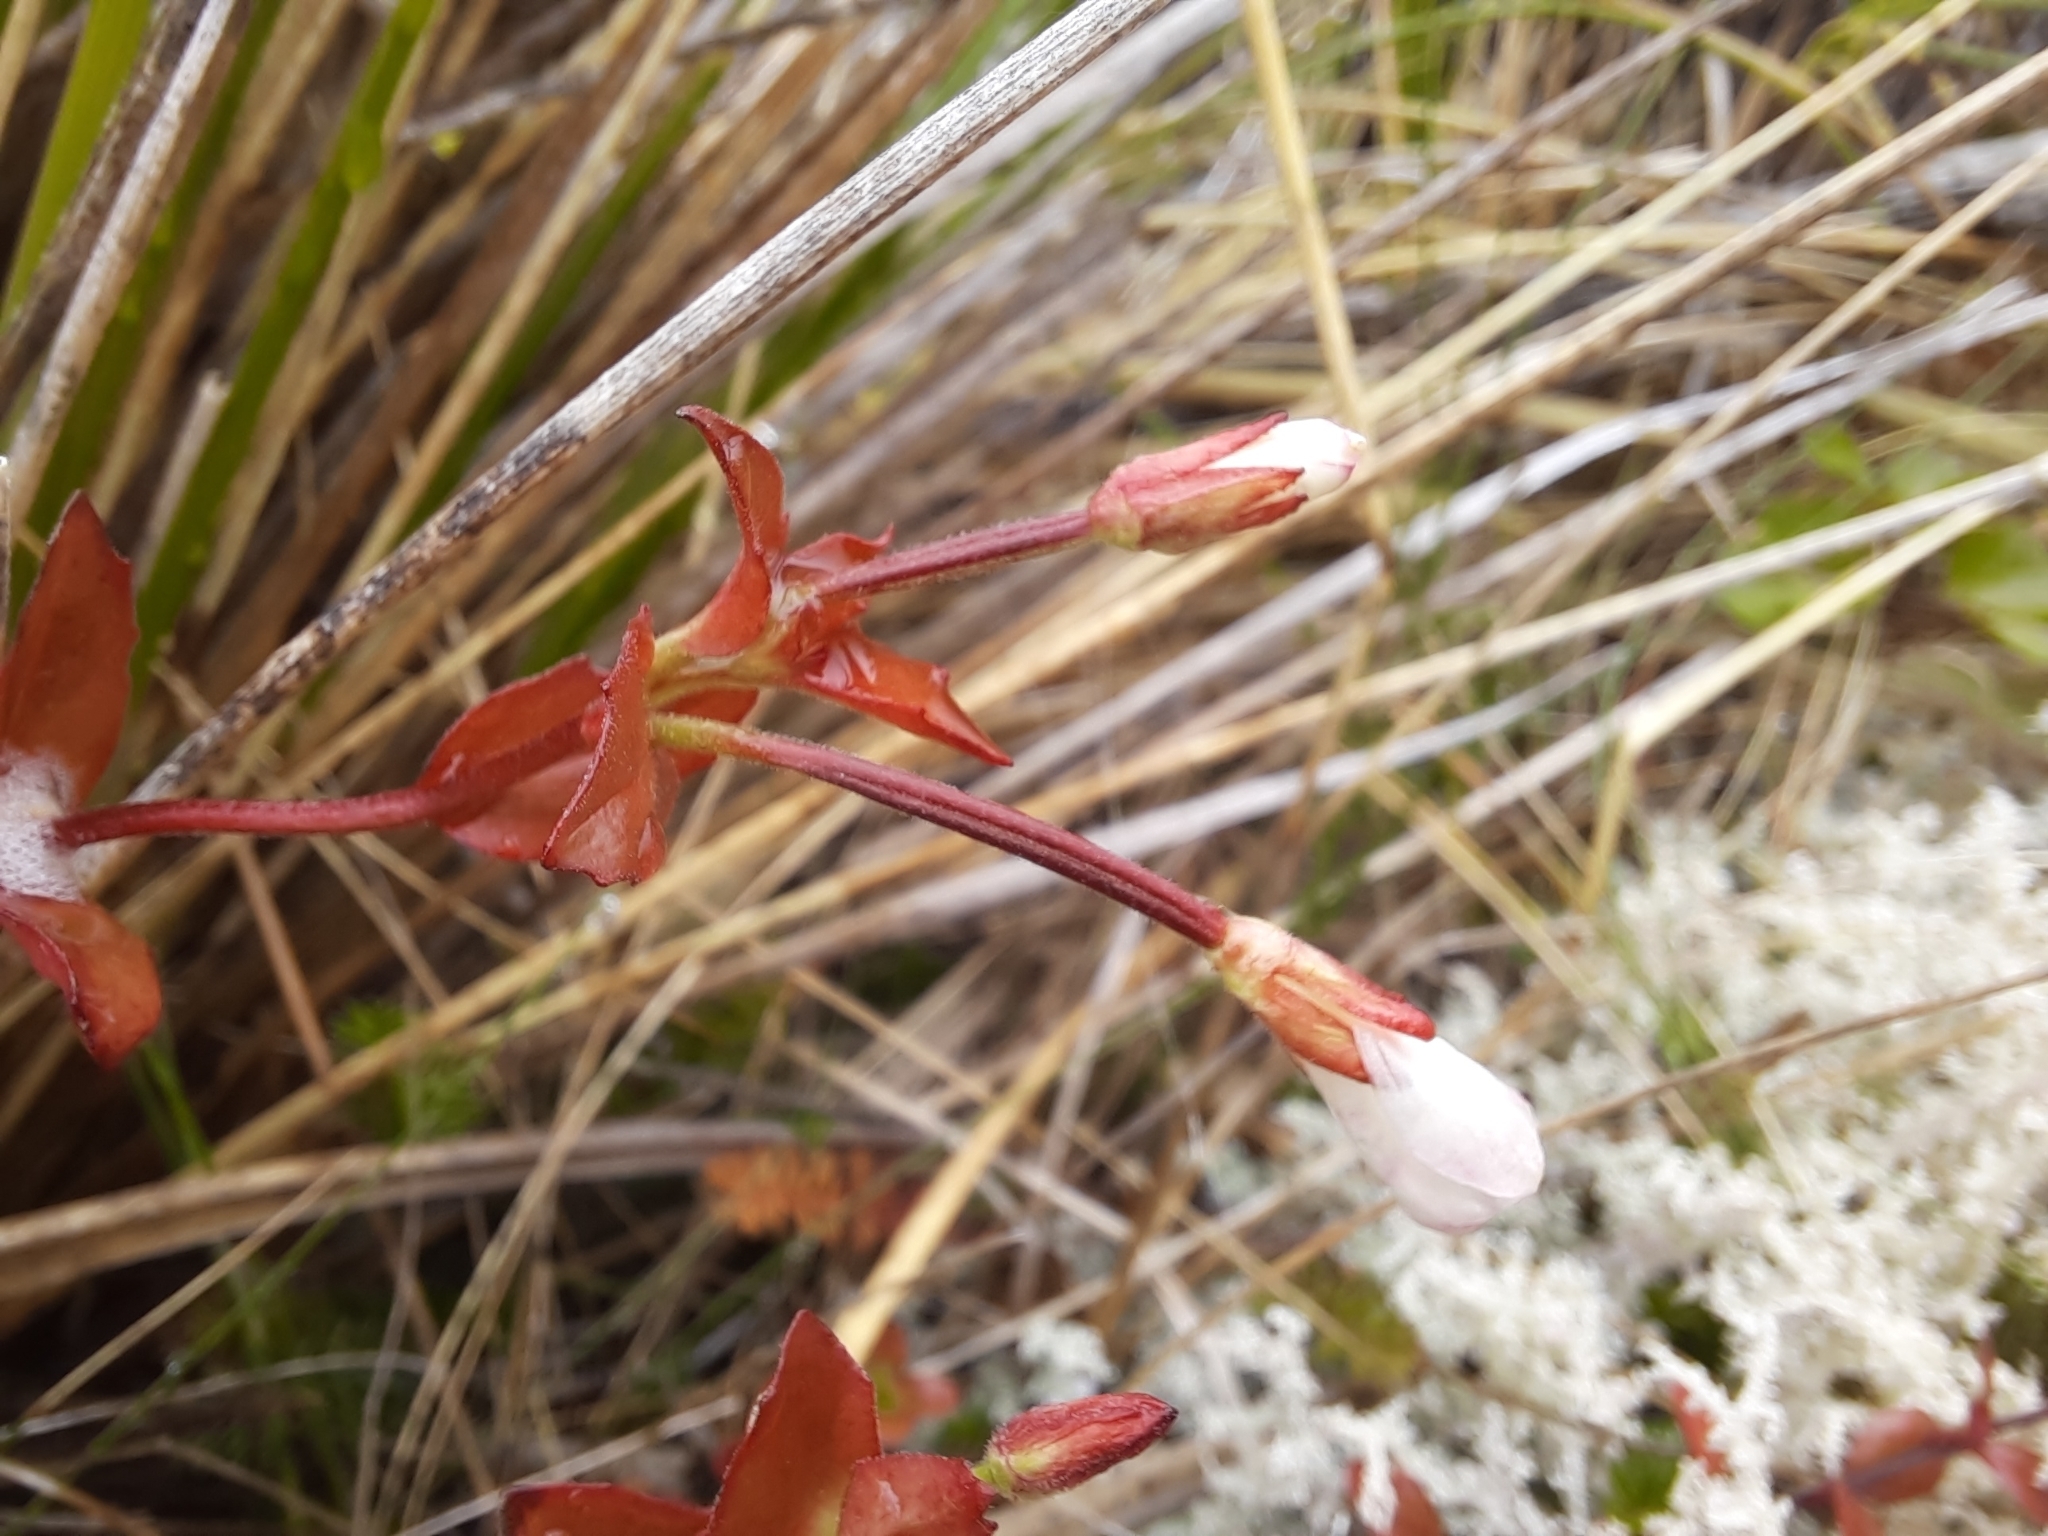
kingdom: Plantae
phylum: Tracheophyta
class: Magnoliopsida
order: Myrtales
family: Onagraceae
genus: Epilobium
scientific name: Epilobium chlorifolium
